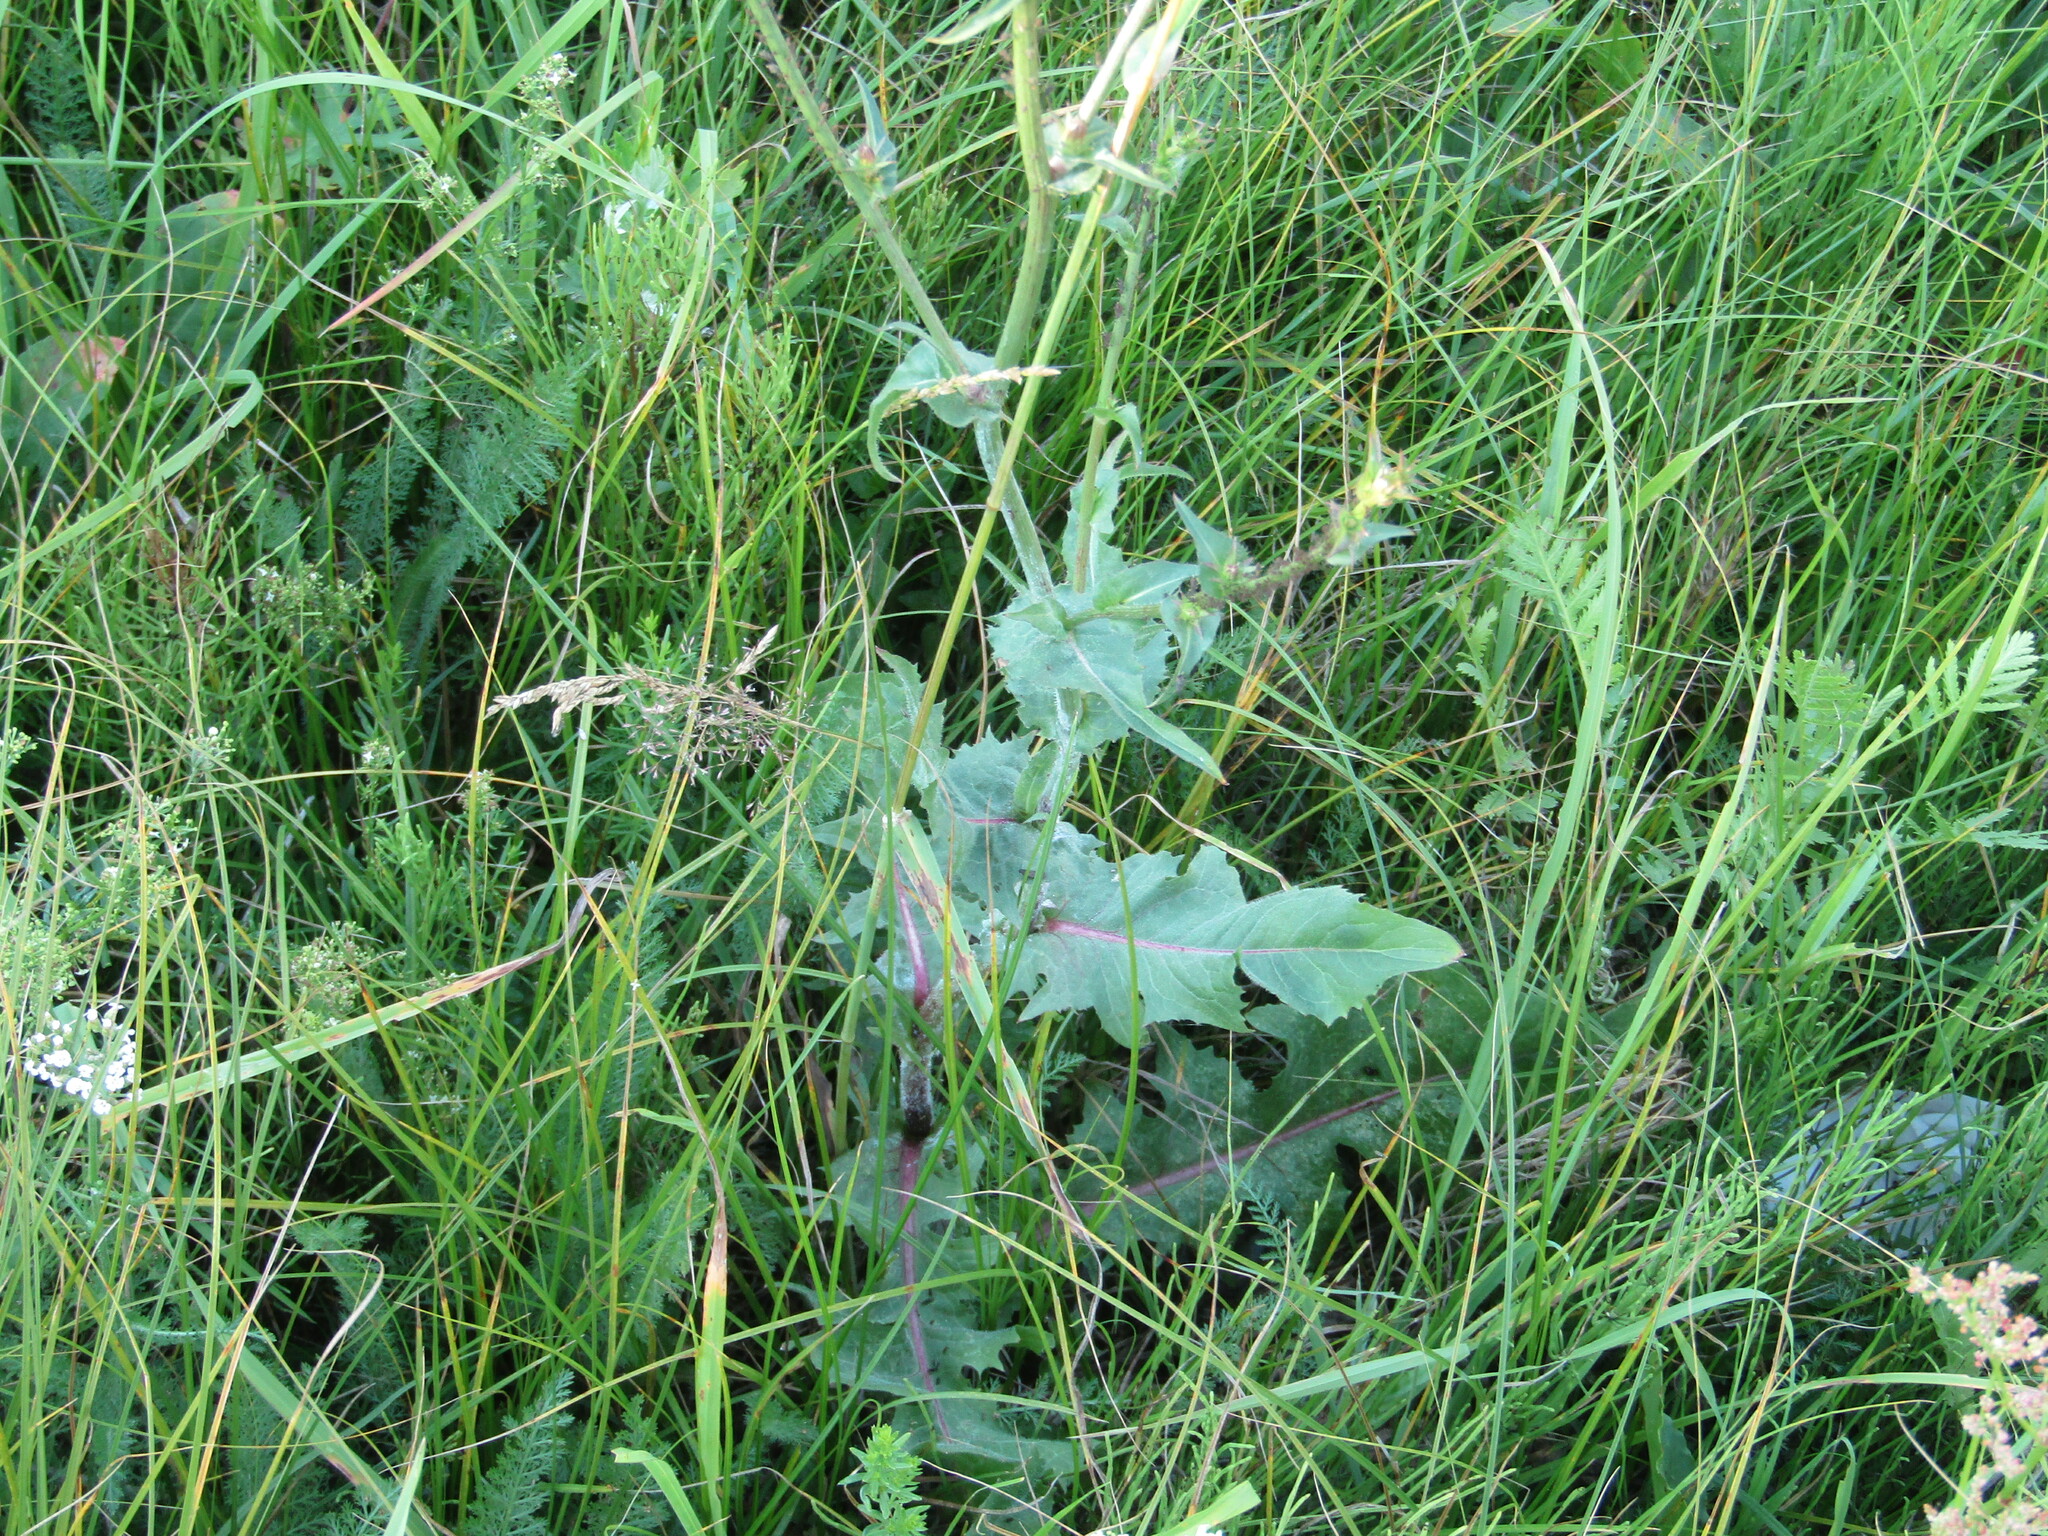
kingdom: Plantae
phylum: Tracheophyta
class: Magnoliopsida
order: Asterales
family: Asteraceae
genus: Cichorium
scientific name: Cichorium intybus
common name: Chicory
